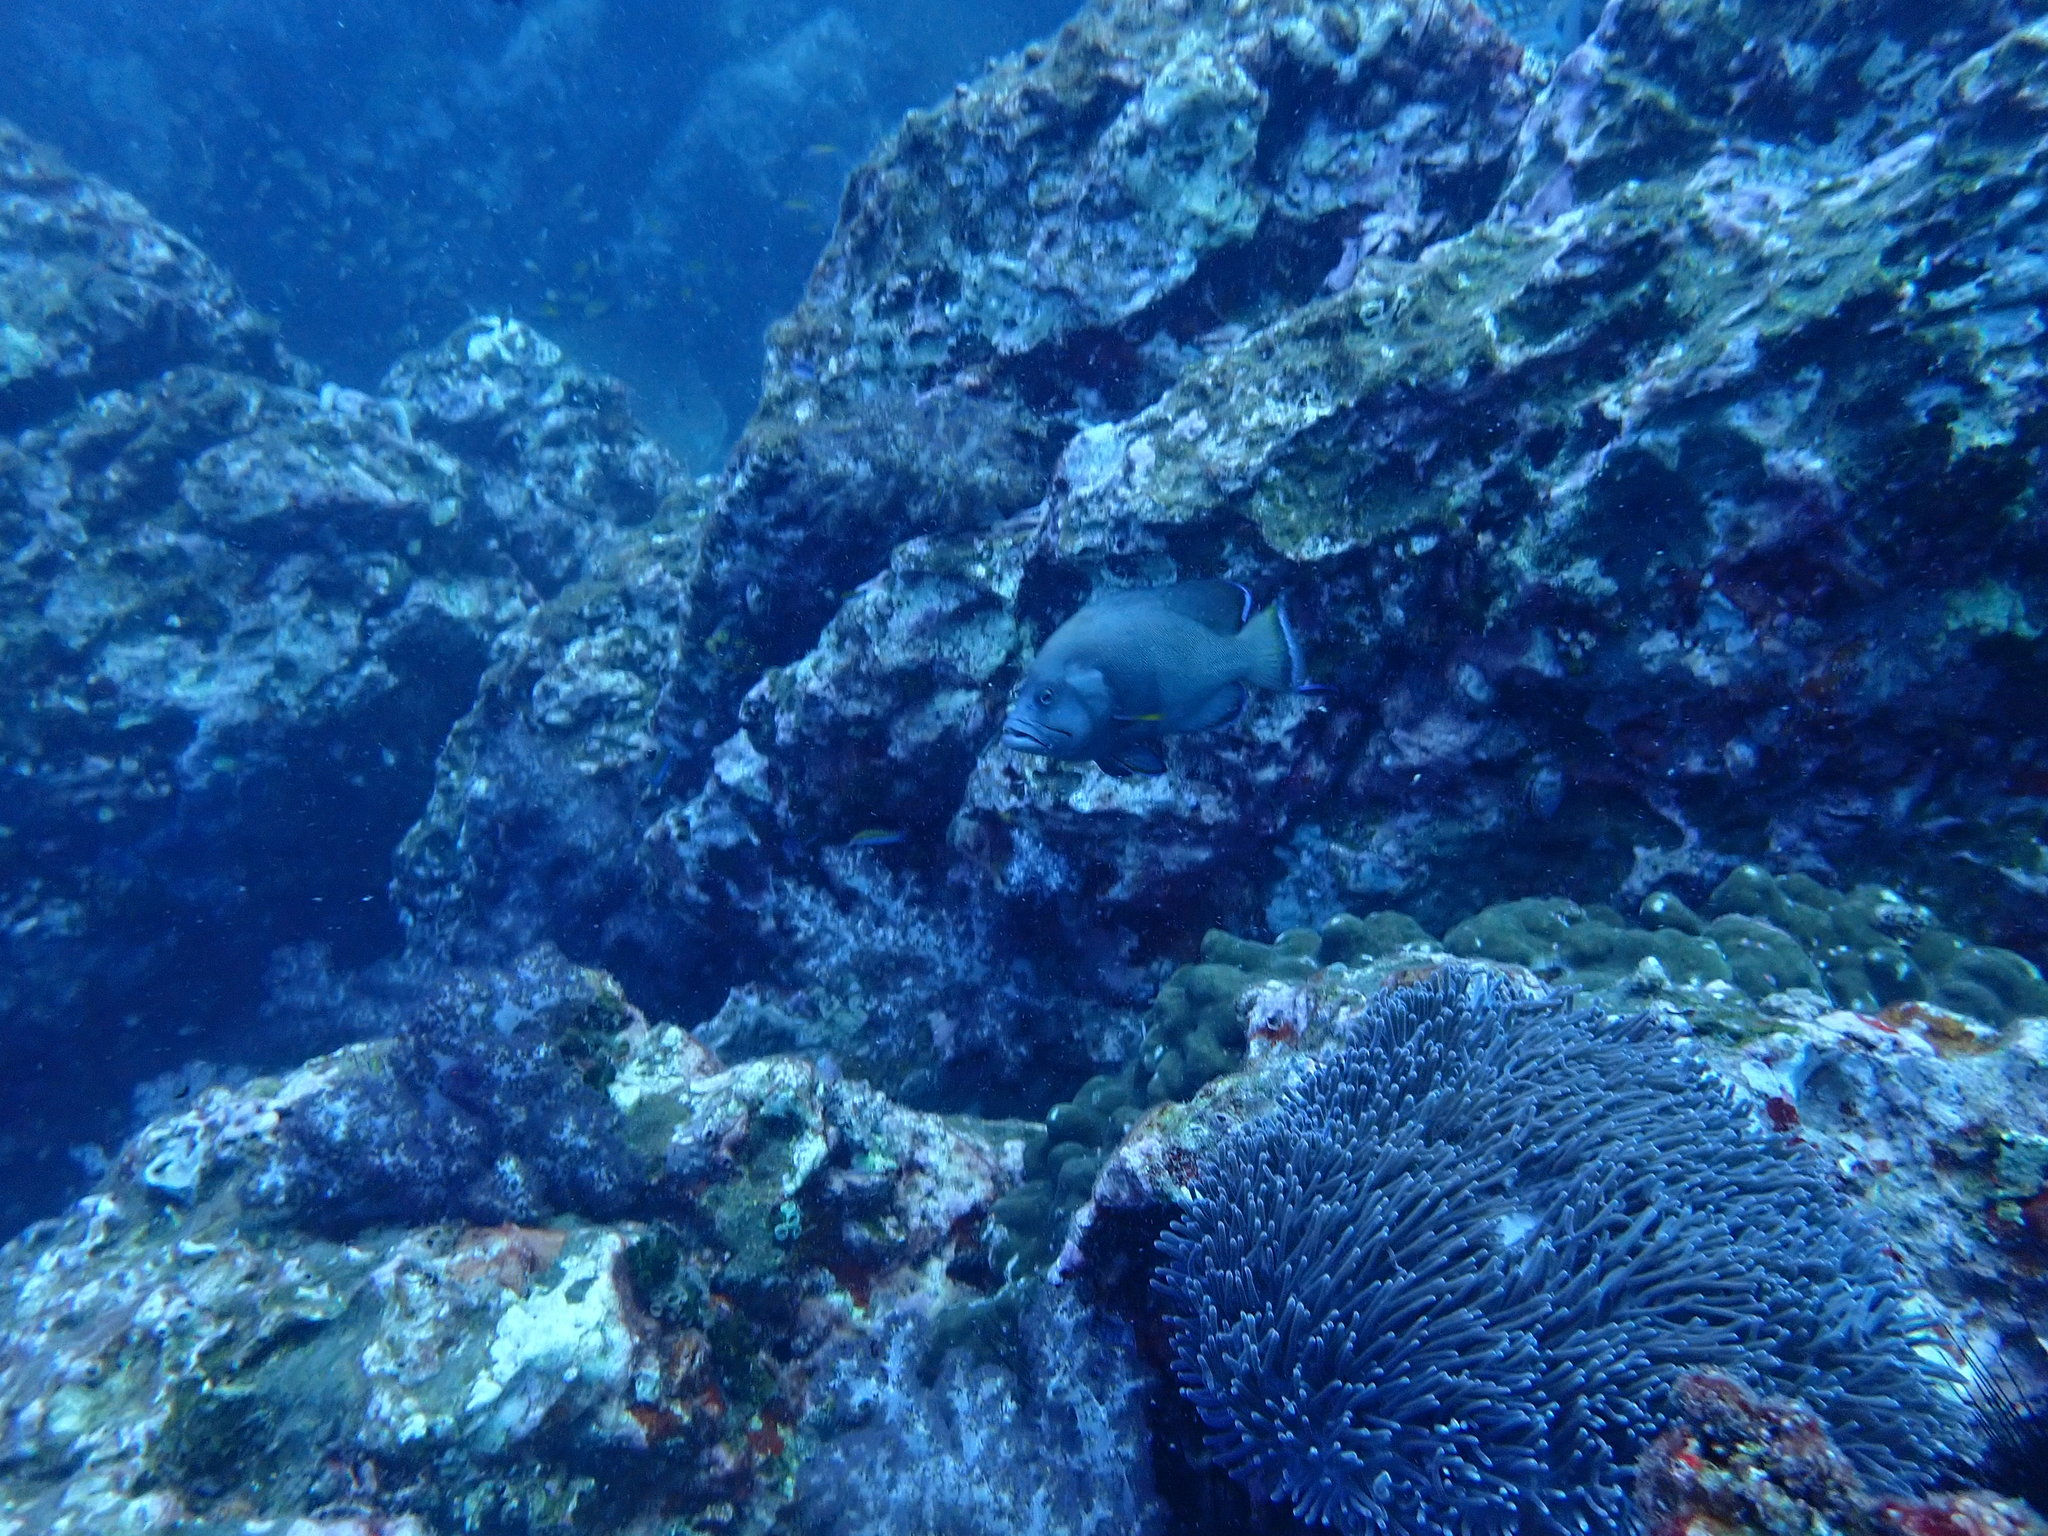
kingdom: Animalia
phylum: Chordata
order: Perciformes
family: Serranidae
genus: Aethaloperca
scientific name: Aethaloperca rogaa
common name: Redmouth grouper
